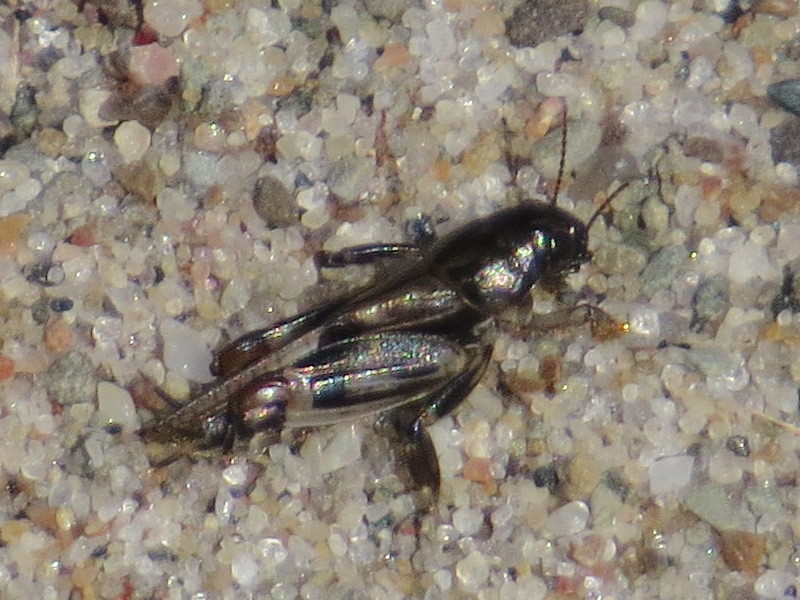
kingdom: Animalia
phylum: Arthropoda
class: Insecta
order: Orthoptera
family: Tridactylidae
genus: Neotridactylus
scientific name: Neotridactylus apicialis
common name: Larger pygmy locust
